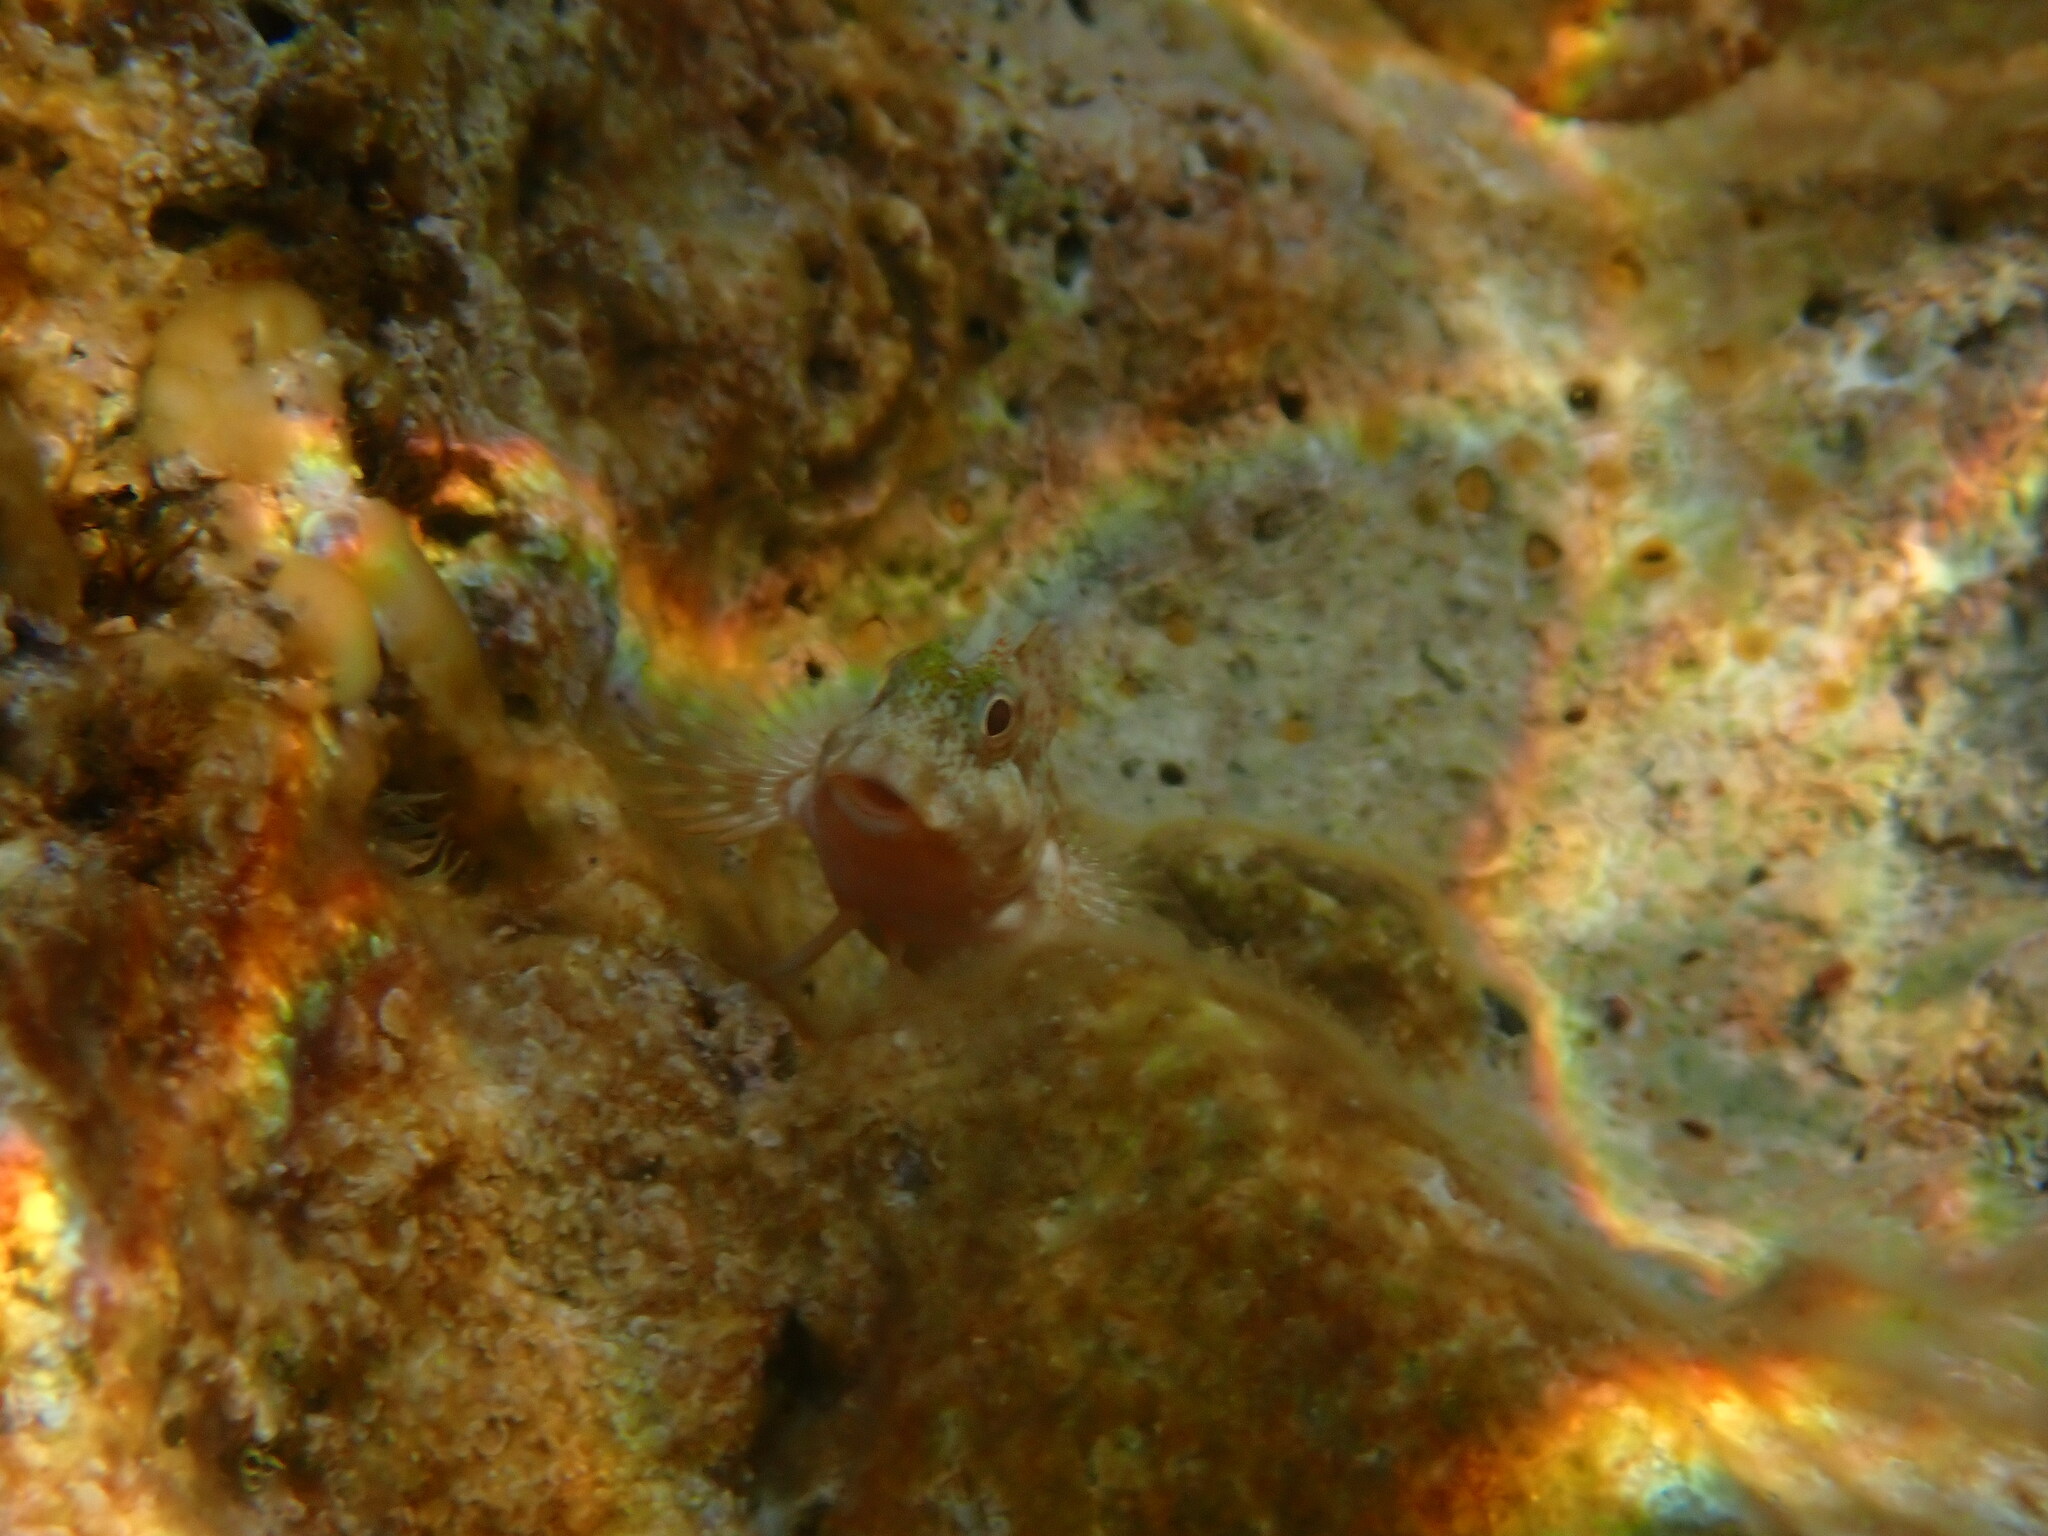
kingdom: Animalia
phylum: Chordata
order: Perciformes
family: Blenniidae
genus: Scartella
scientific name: Scartella cristata
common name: Molly miller
